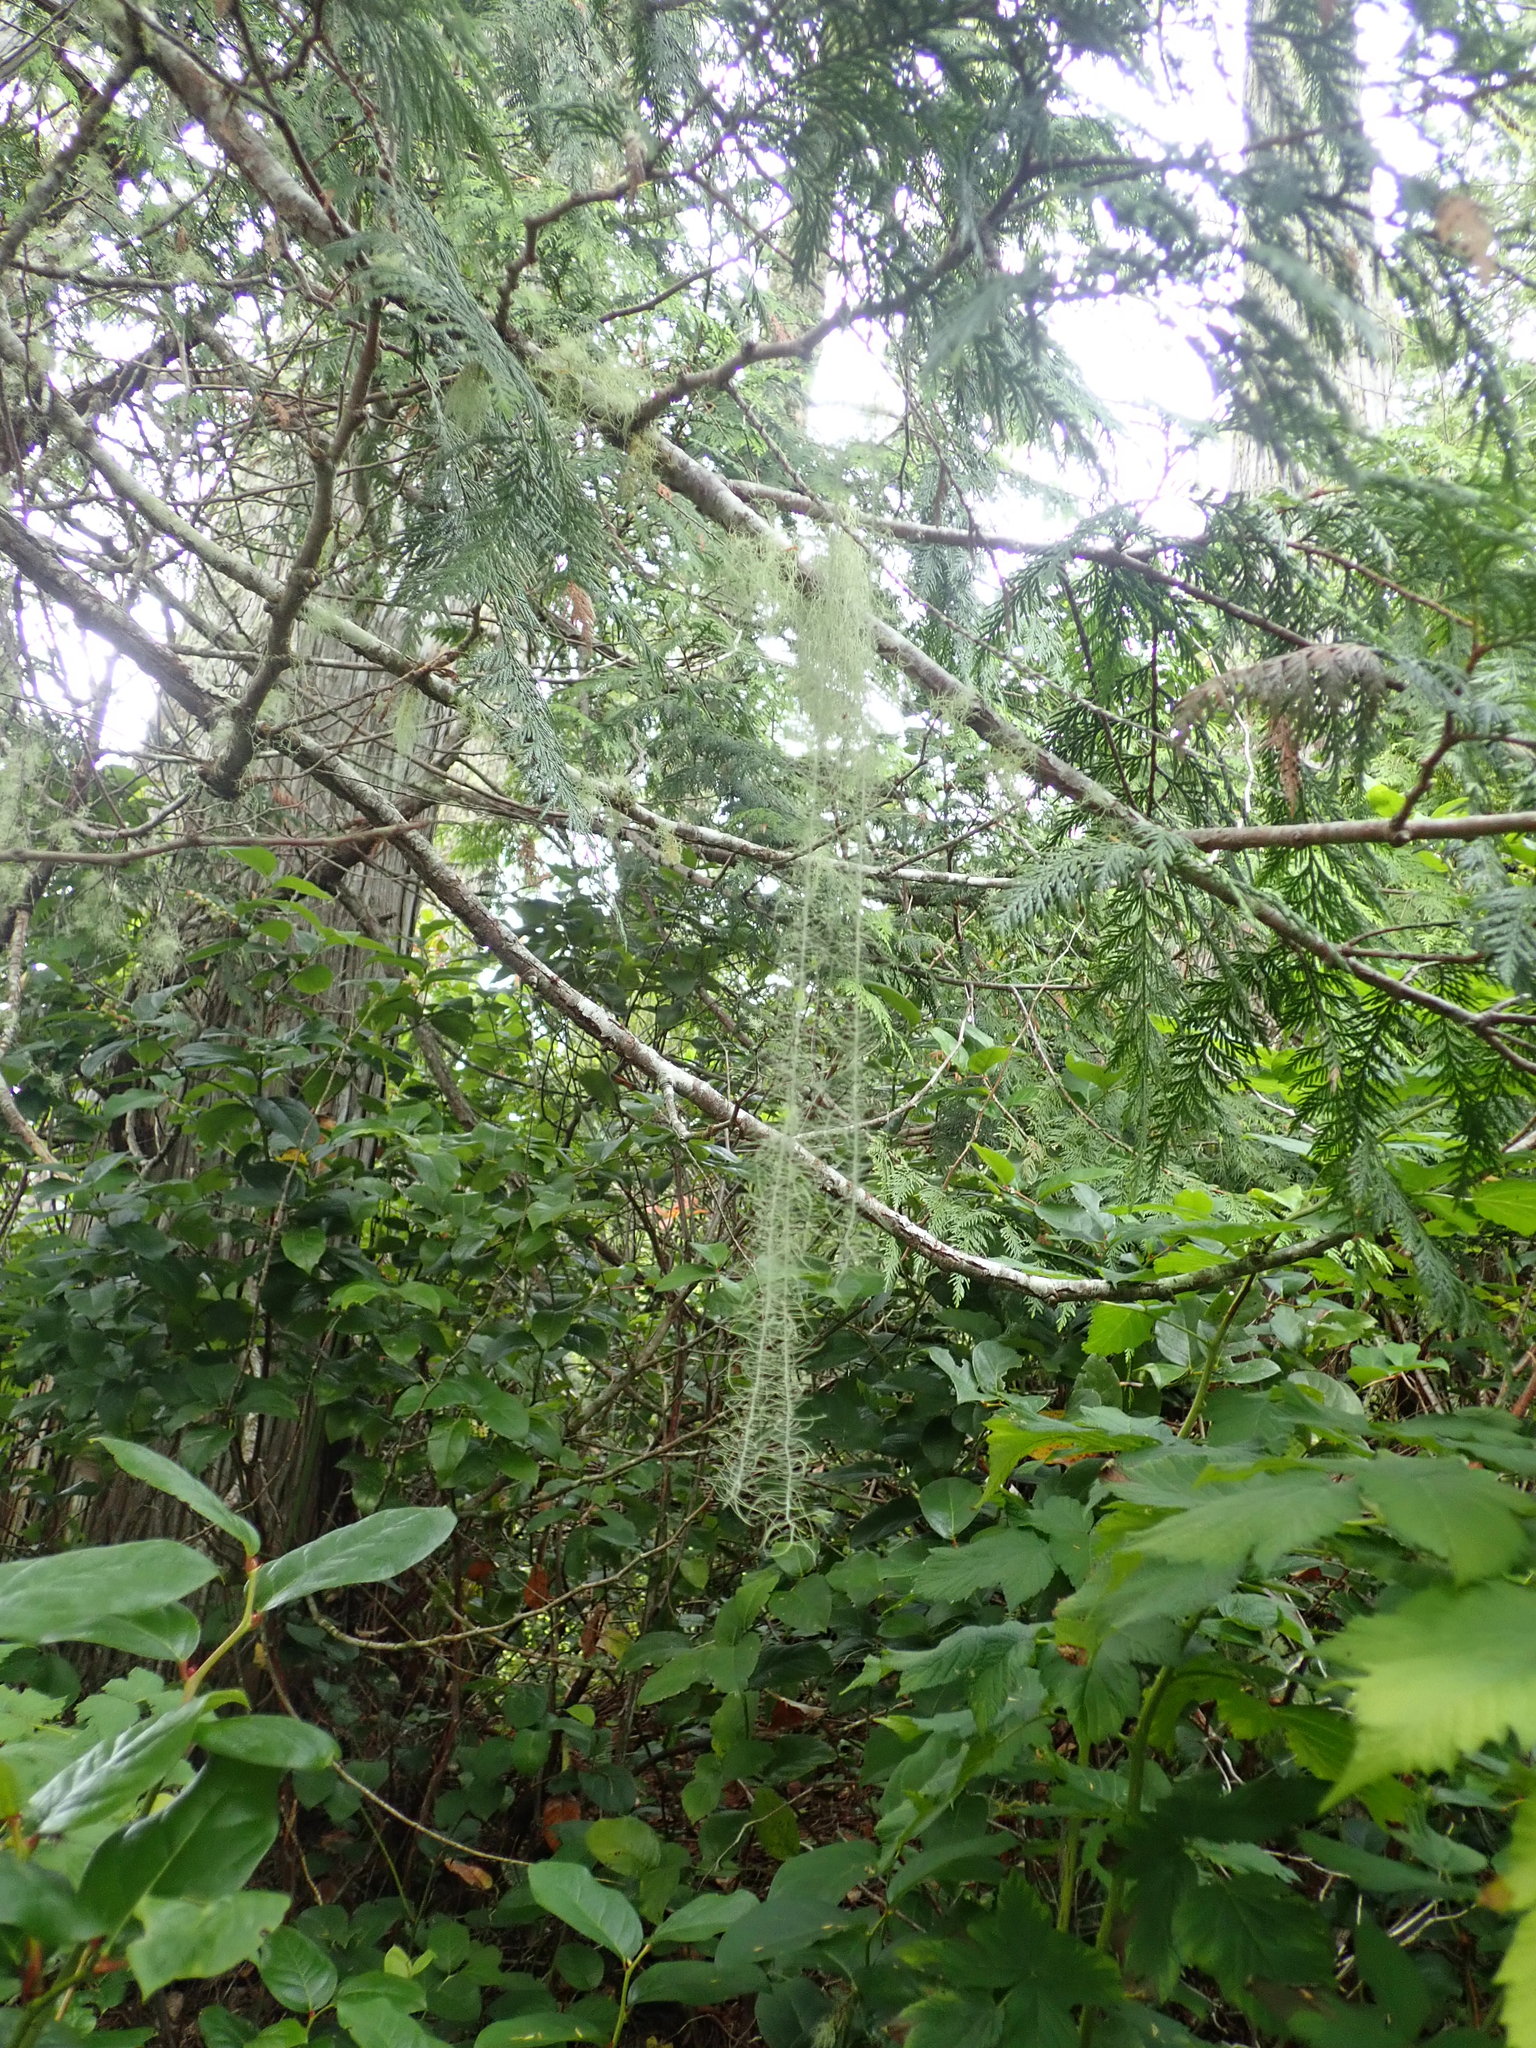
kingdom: Fungi
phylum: Ascomycota
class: Lecanoromycetes
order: Lecanorales
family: Parmeliaceae
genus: Dolichousnea
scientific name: Dolichousnea longissima
